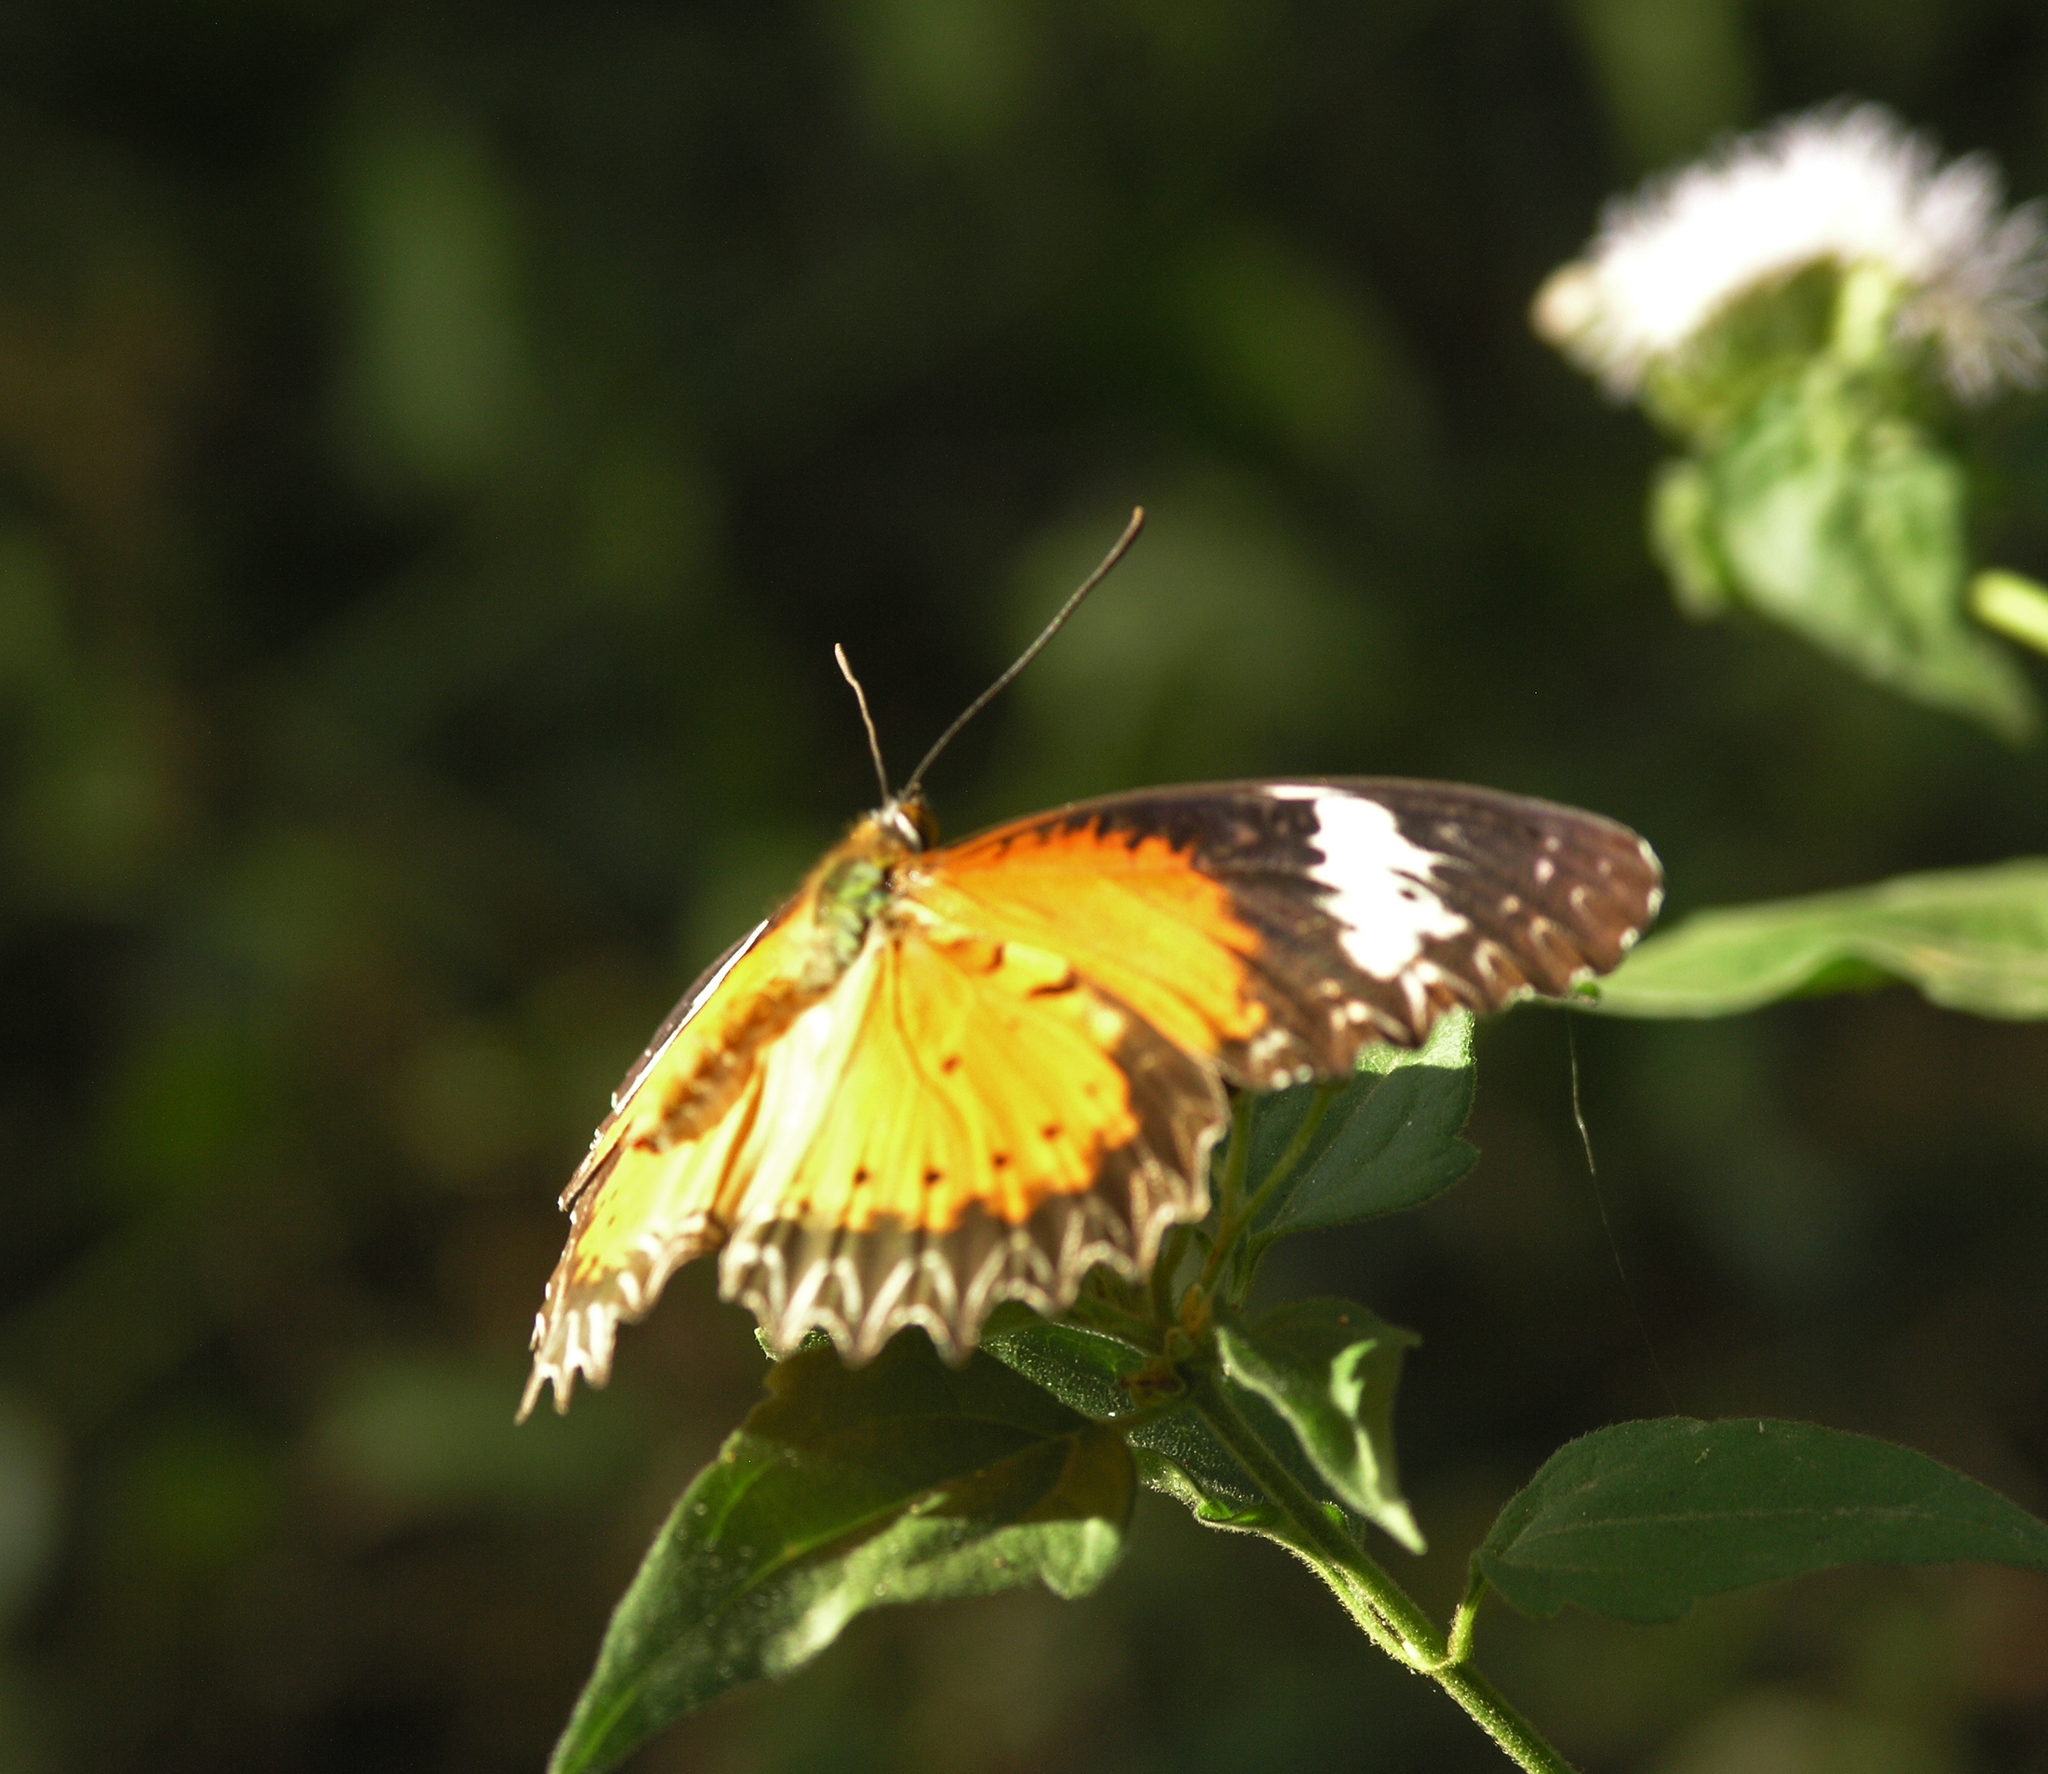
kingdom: Animalia
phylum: Arthropoda
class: Insecta
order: Lepidoptera
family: Nymphalidae
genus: Cethosia
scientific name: Cethosia cyane
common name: Leopard lacewing butterfly
